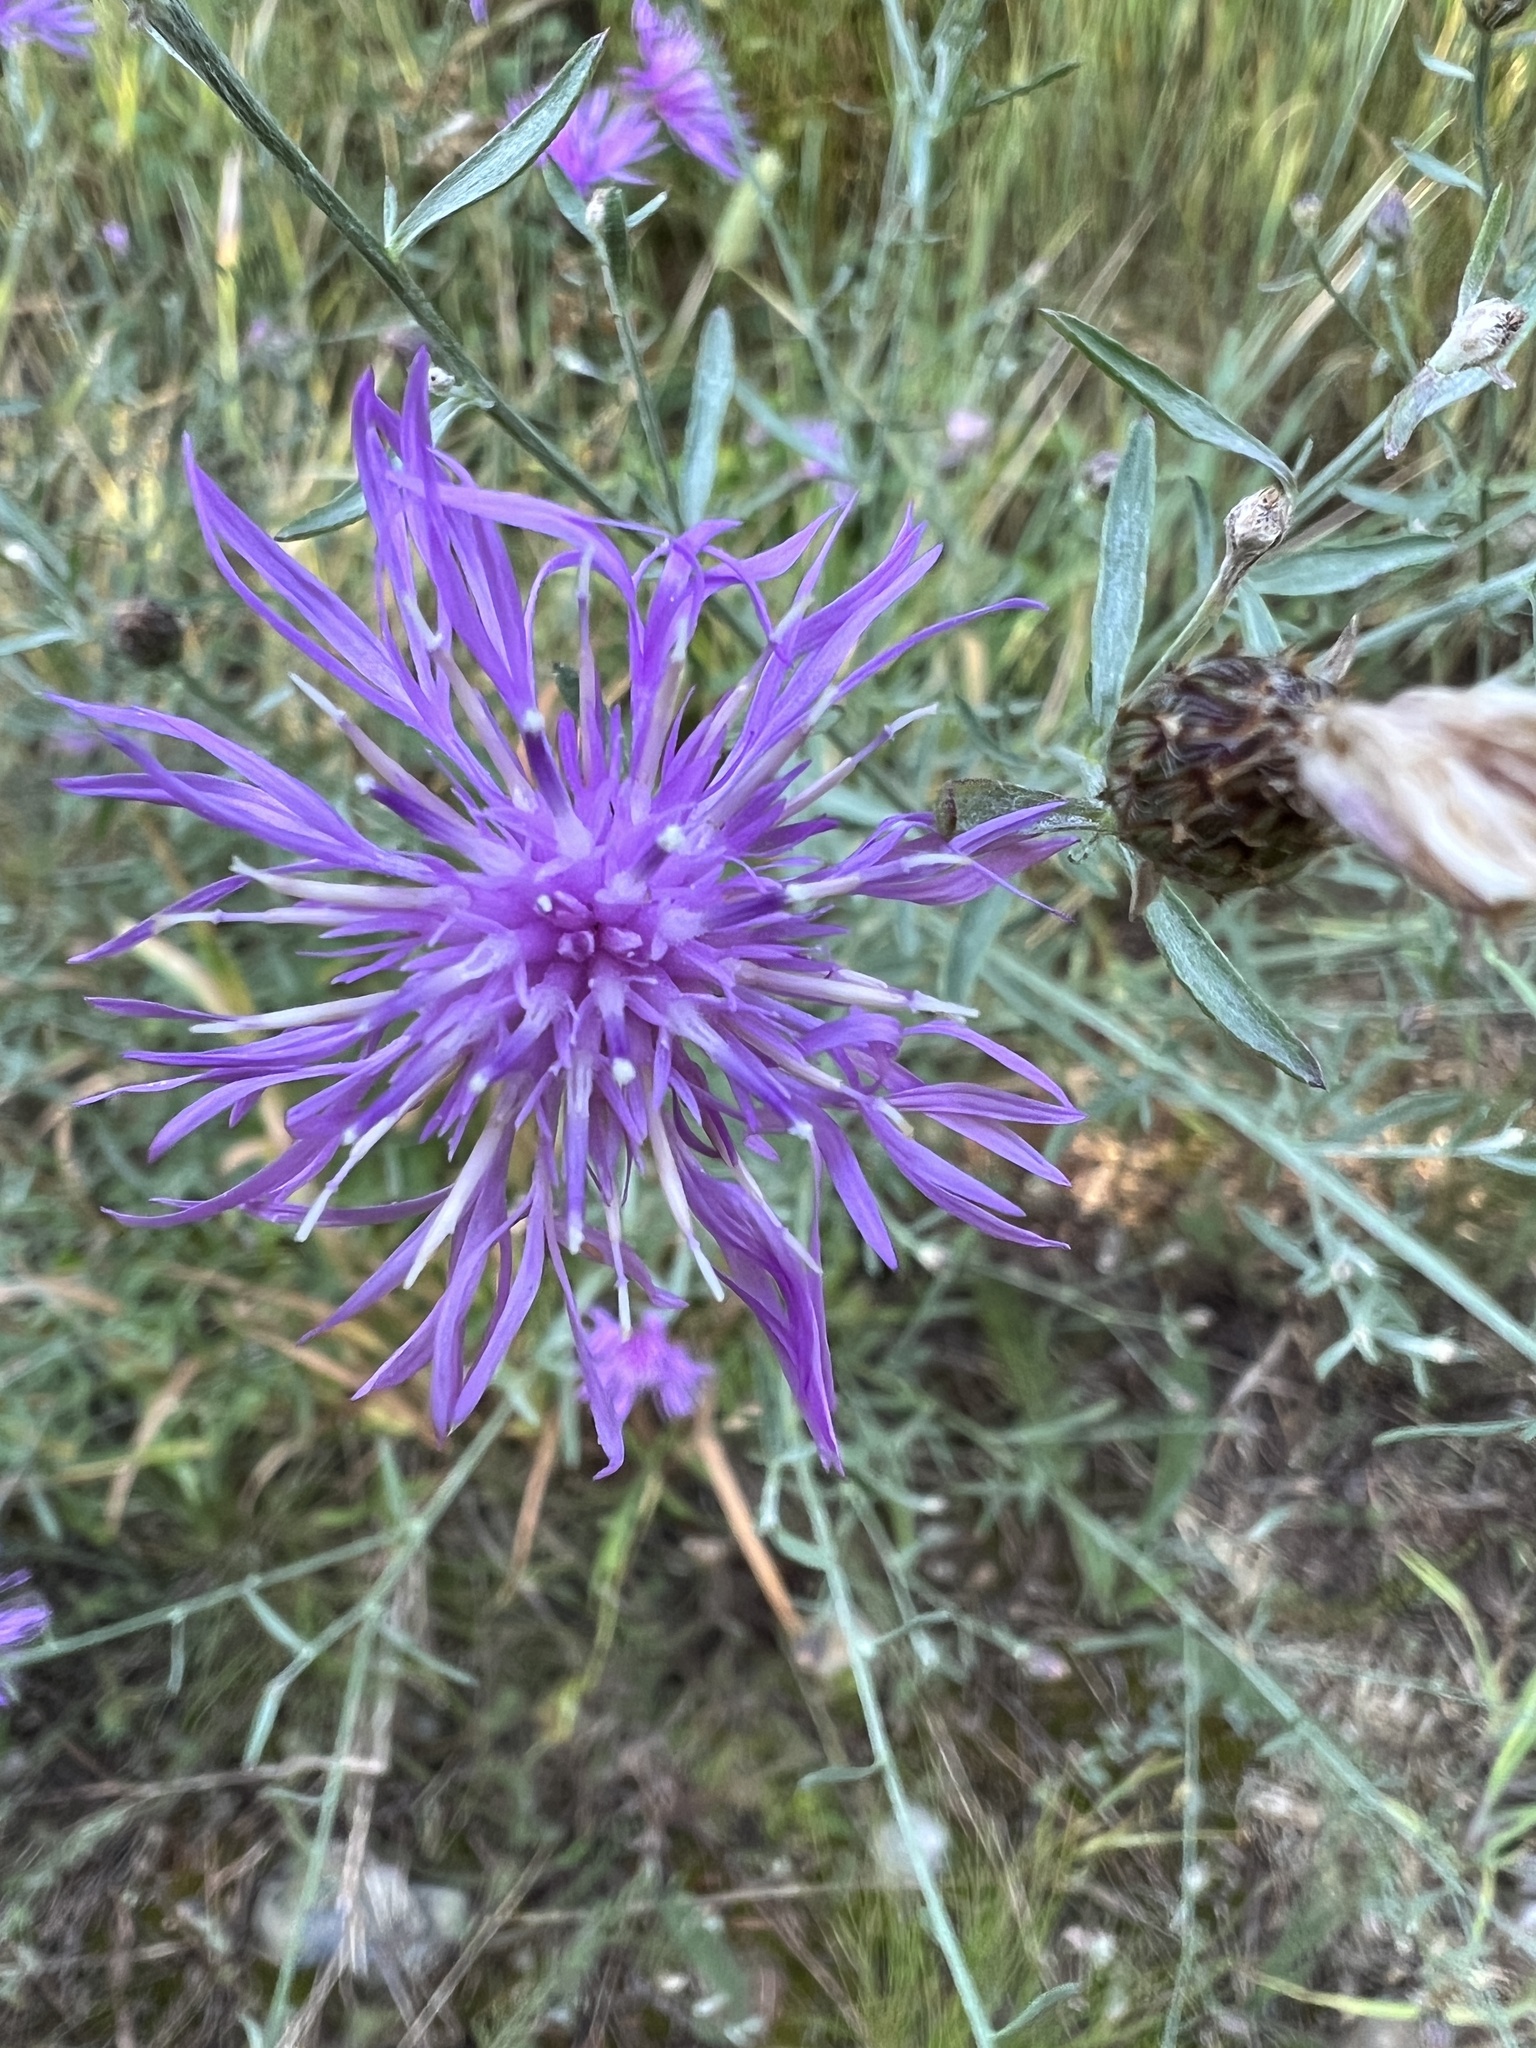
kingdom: Plantae
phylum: Tracheophyta
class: Magnoliopsida
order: Asterales
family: Asteraceae
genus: Centaurea
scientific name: Centaurea stoebe
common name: Spotted knapweed
